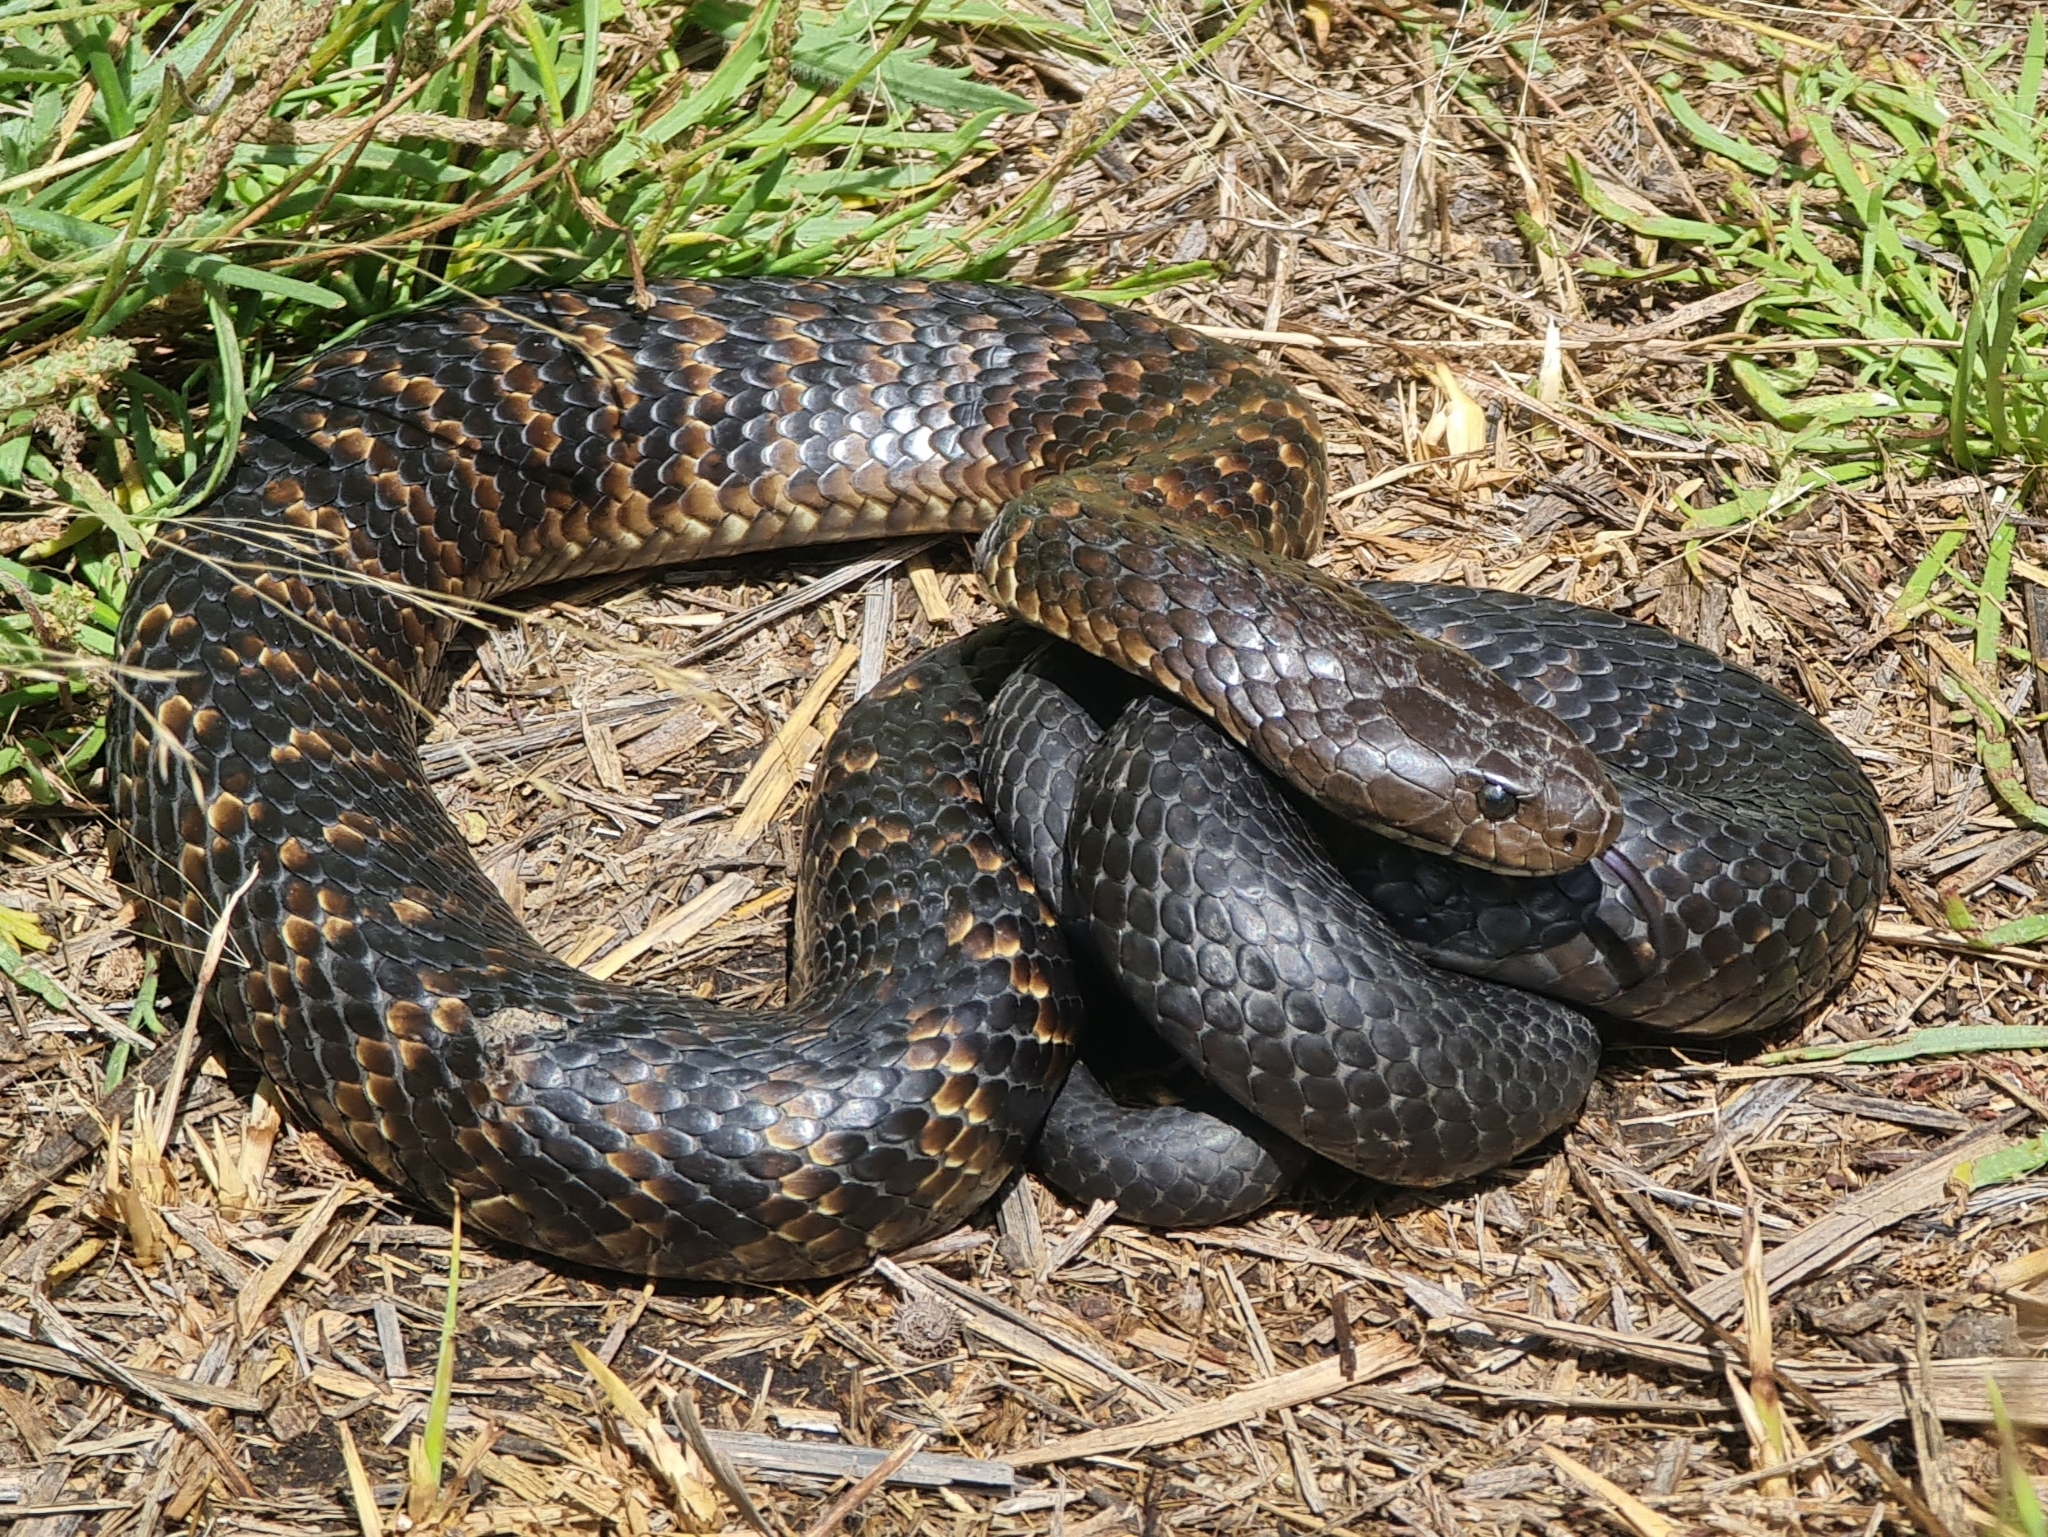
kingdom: Animalia
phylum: Chordata
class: Squamata
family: Elapidae
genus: Notechis
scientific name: Notechis scutatus
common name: Mainland tiger snake
